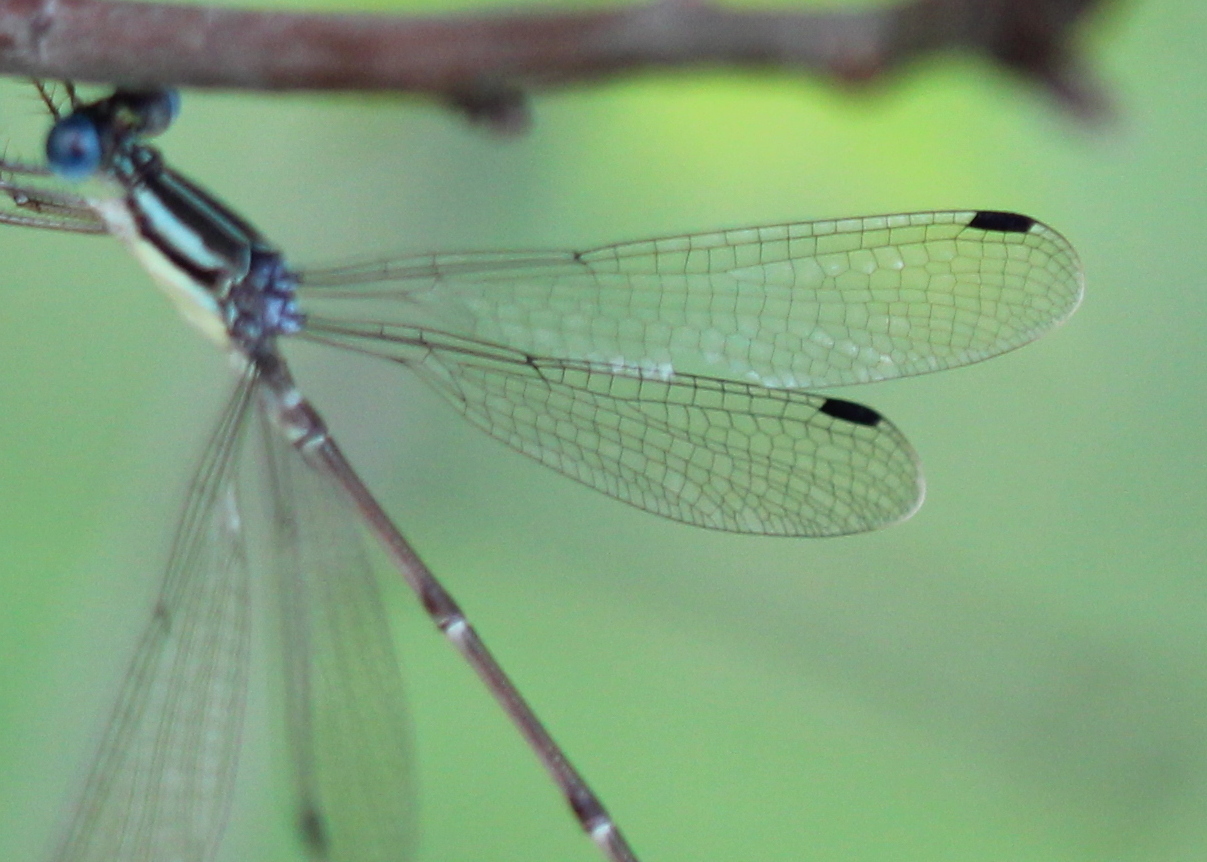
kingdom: Animalia
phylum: Arthropoda
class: Insecta
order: Odonata
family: Lestidae
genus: Lestes
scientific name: Lestes rectangularis
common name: Slender spreadwing
